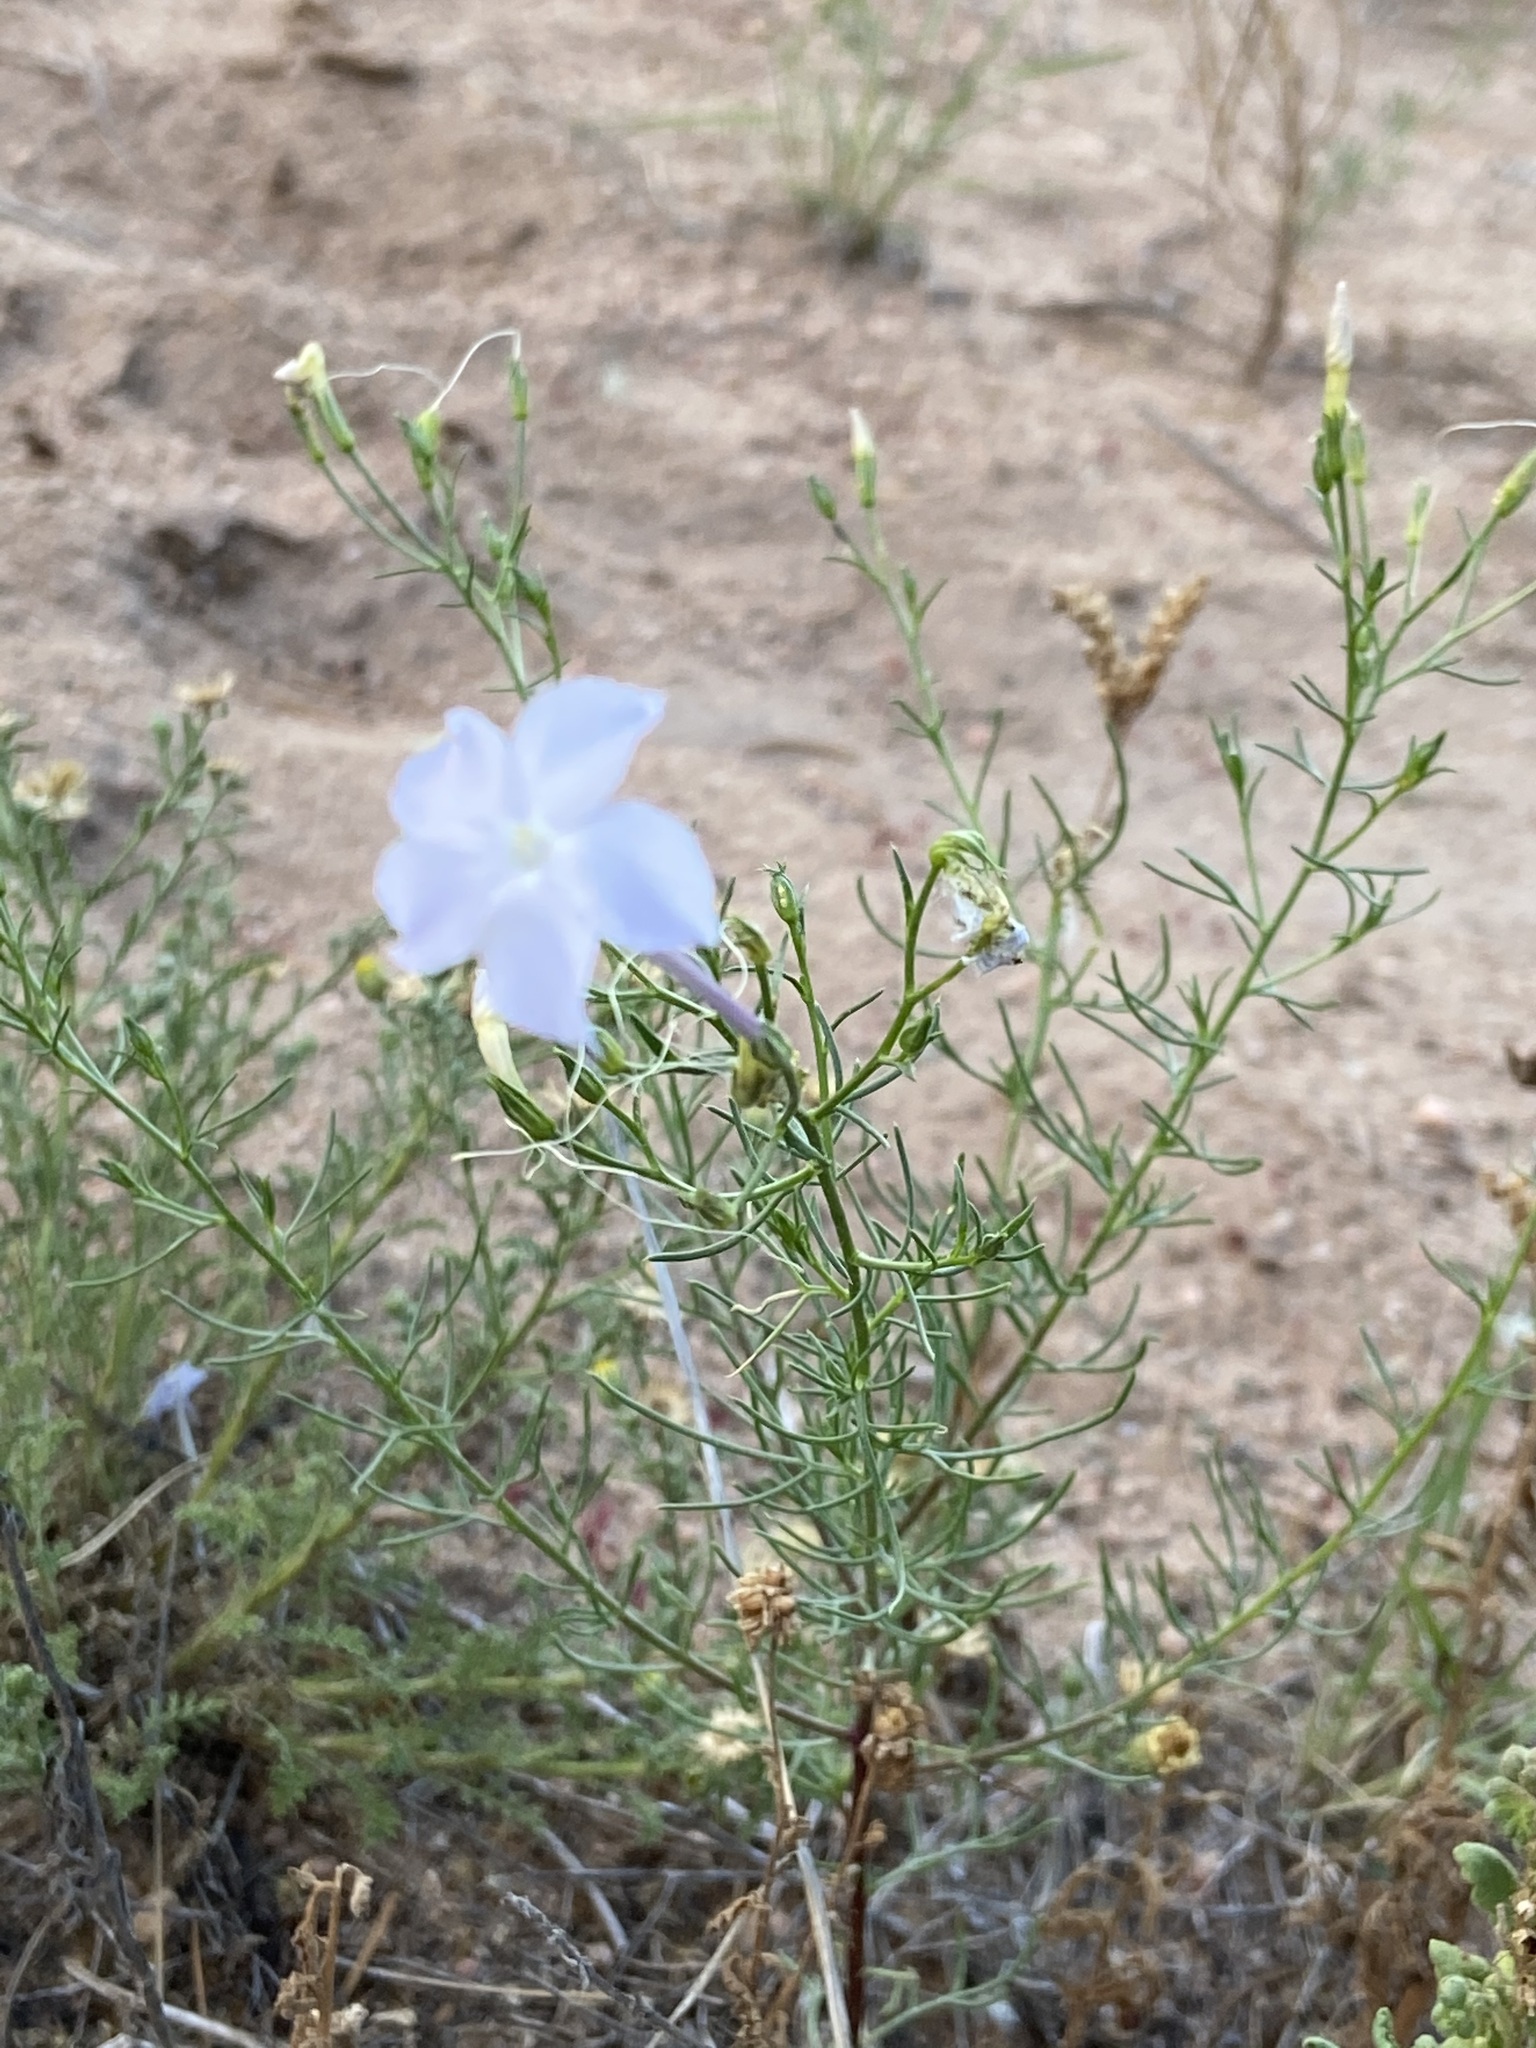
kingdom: Plantae
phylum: Tracheophyta
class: Magnoliopsida
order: Ericales
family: Polemoniaceae
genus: Ipomopsis
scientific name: Ipomopsis longiflora
